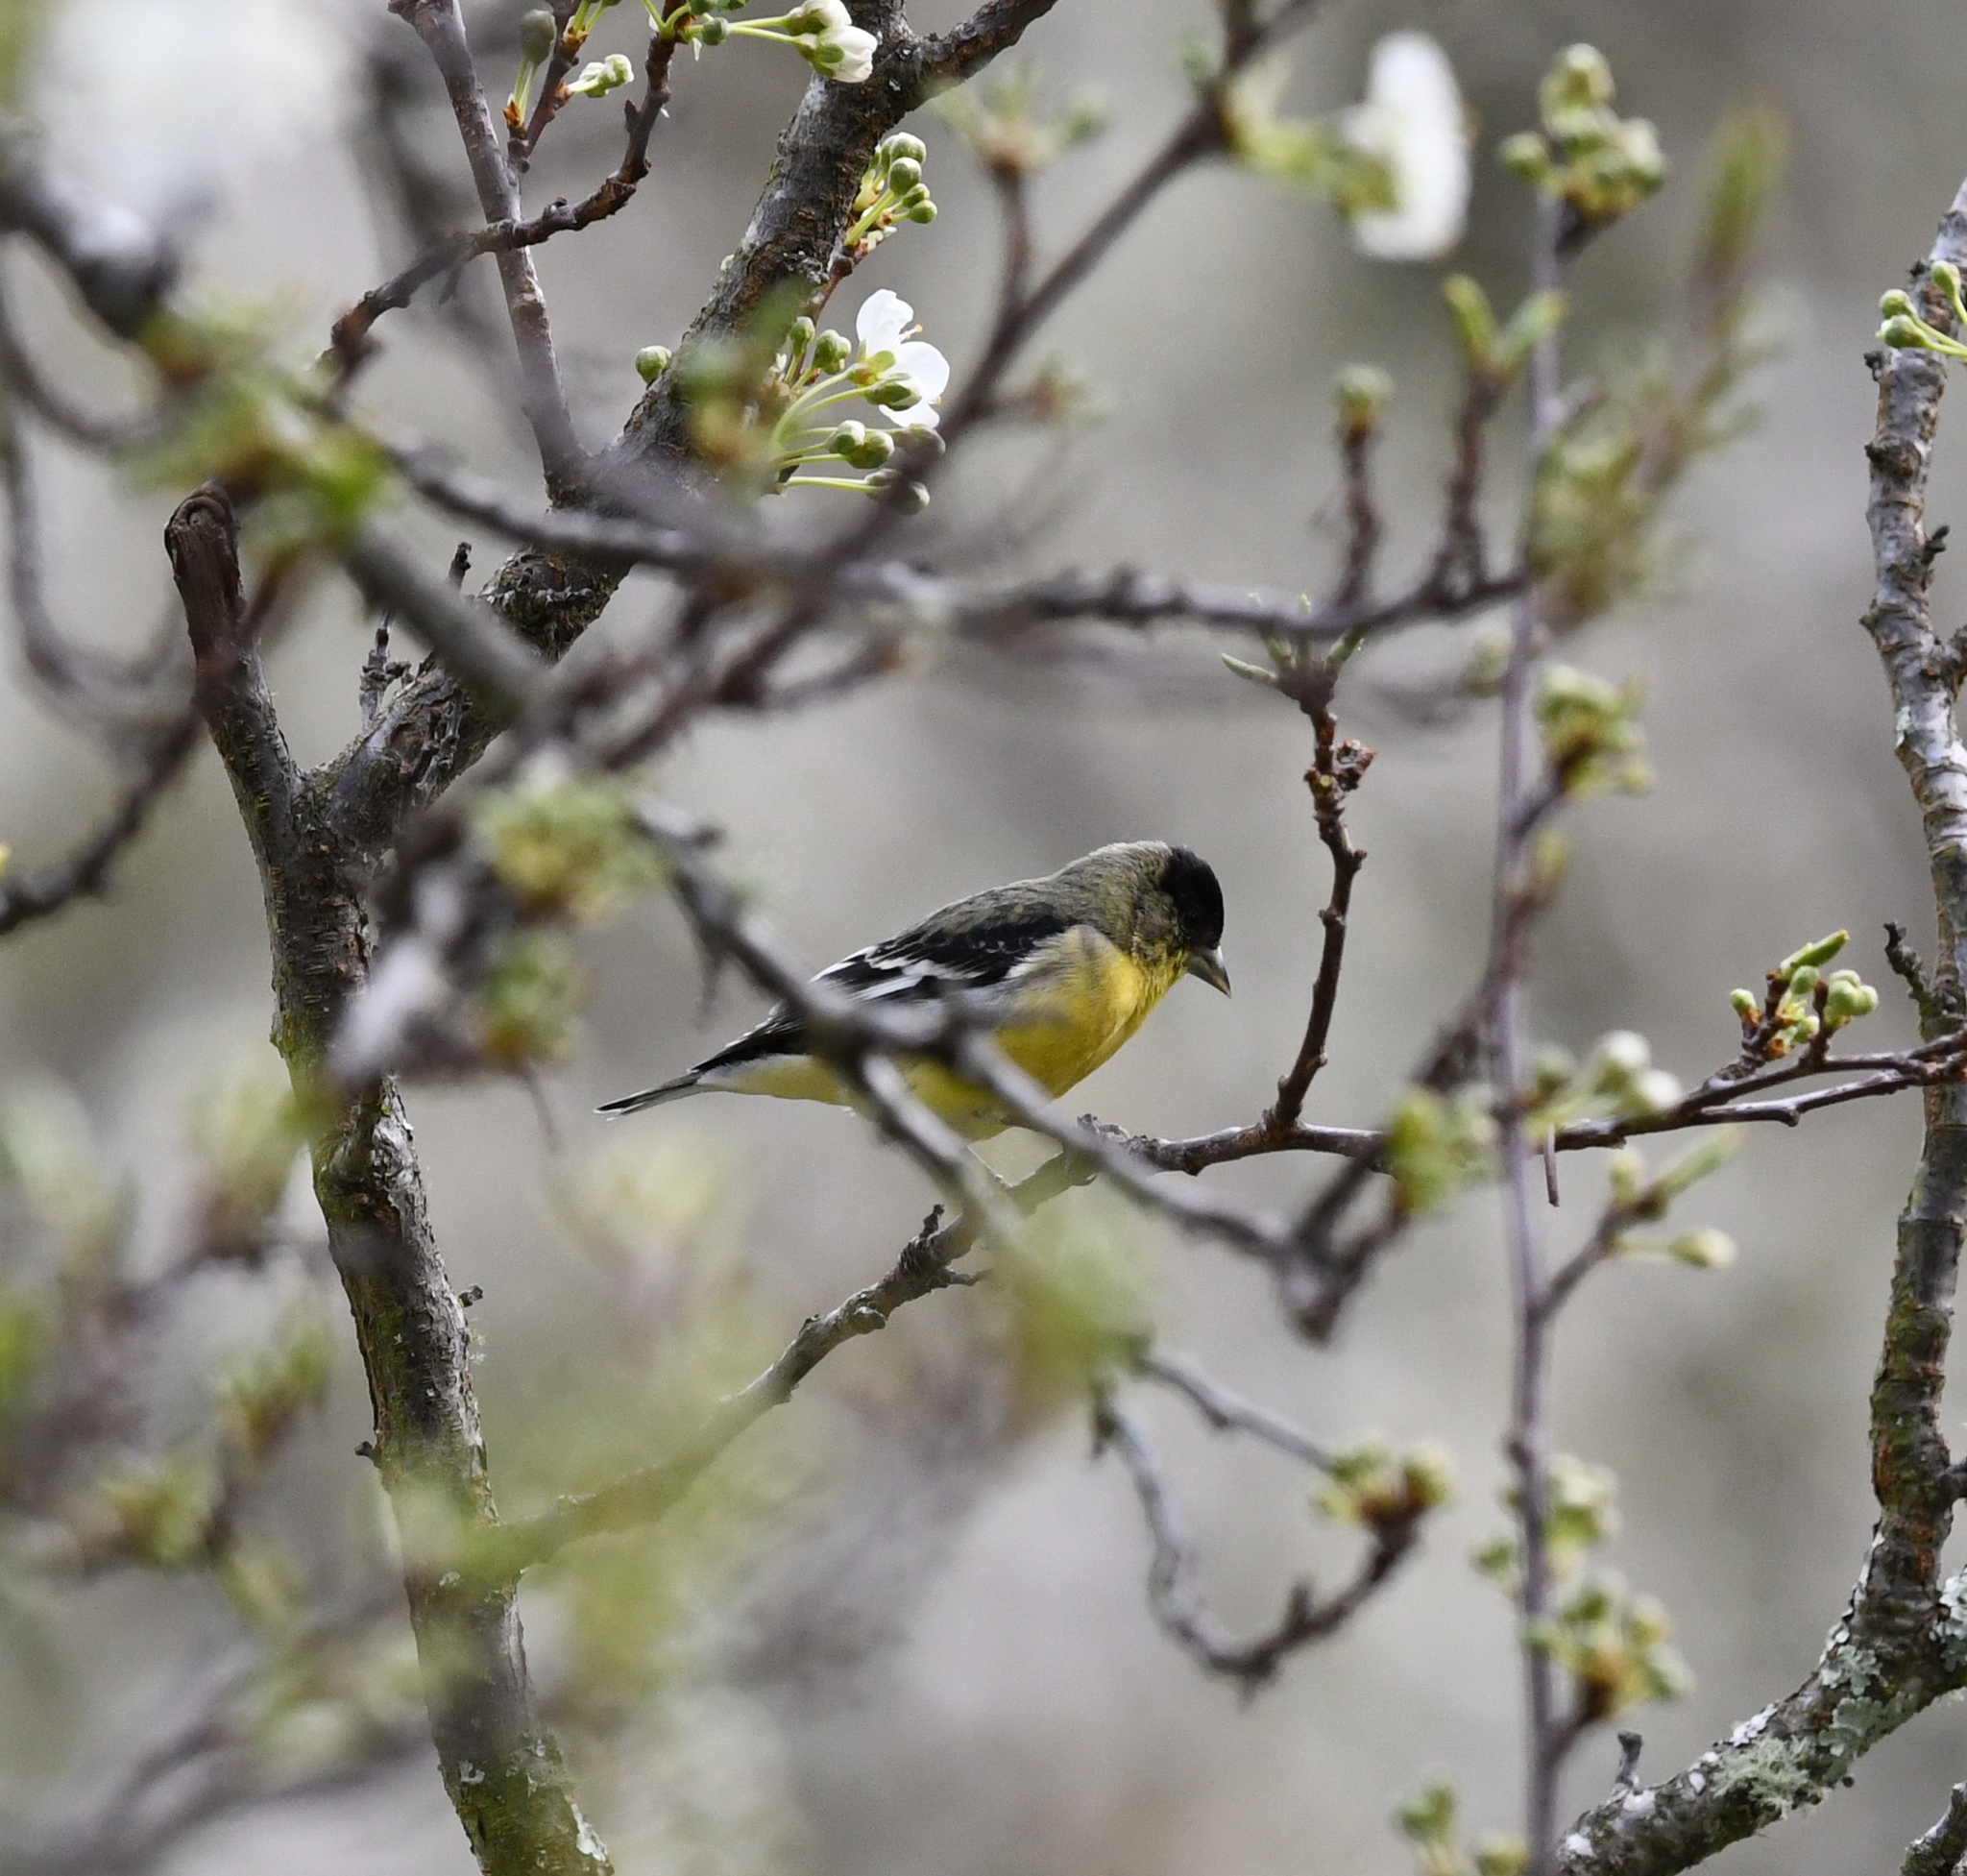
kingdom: Animalia
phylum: Chordata
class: Aves
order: Passeriformes
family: Fringillidae
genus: Spinus
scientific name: Spinus psaltria
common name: Lesser goldfinch
